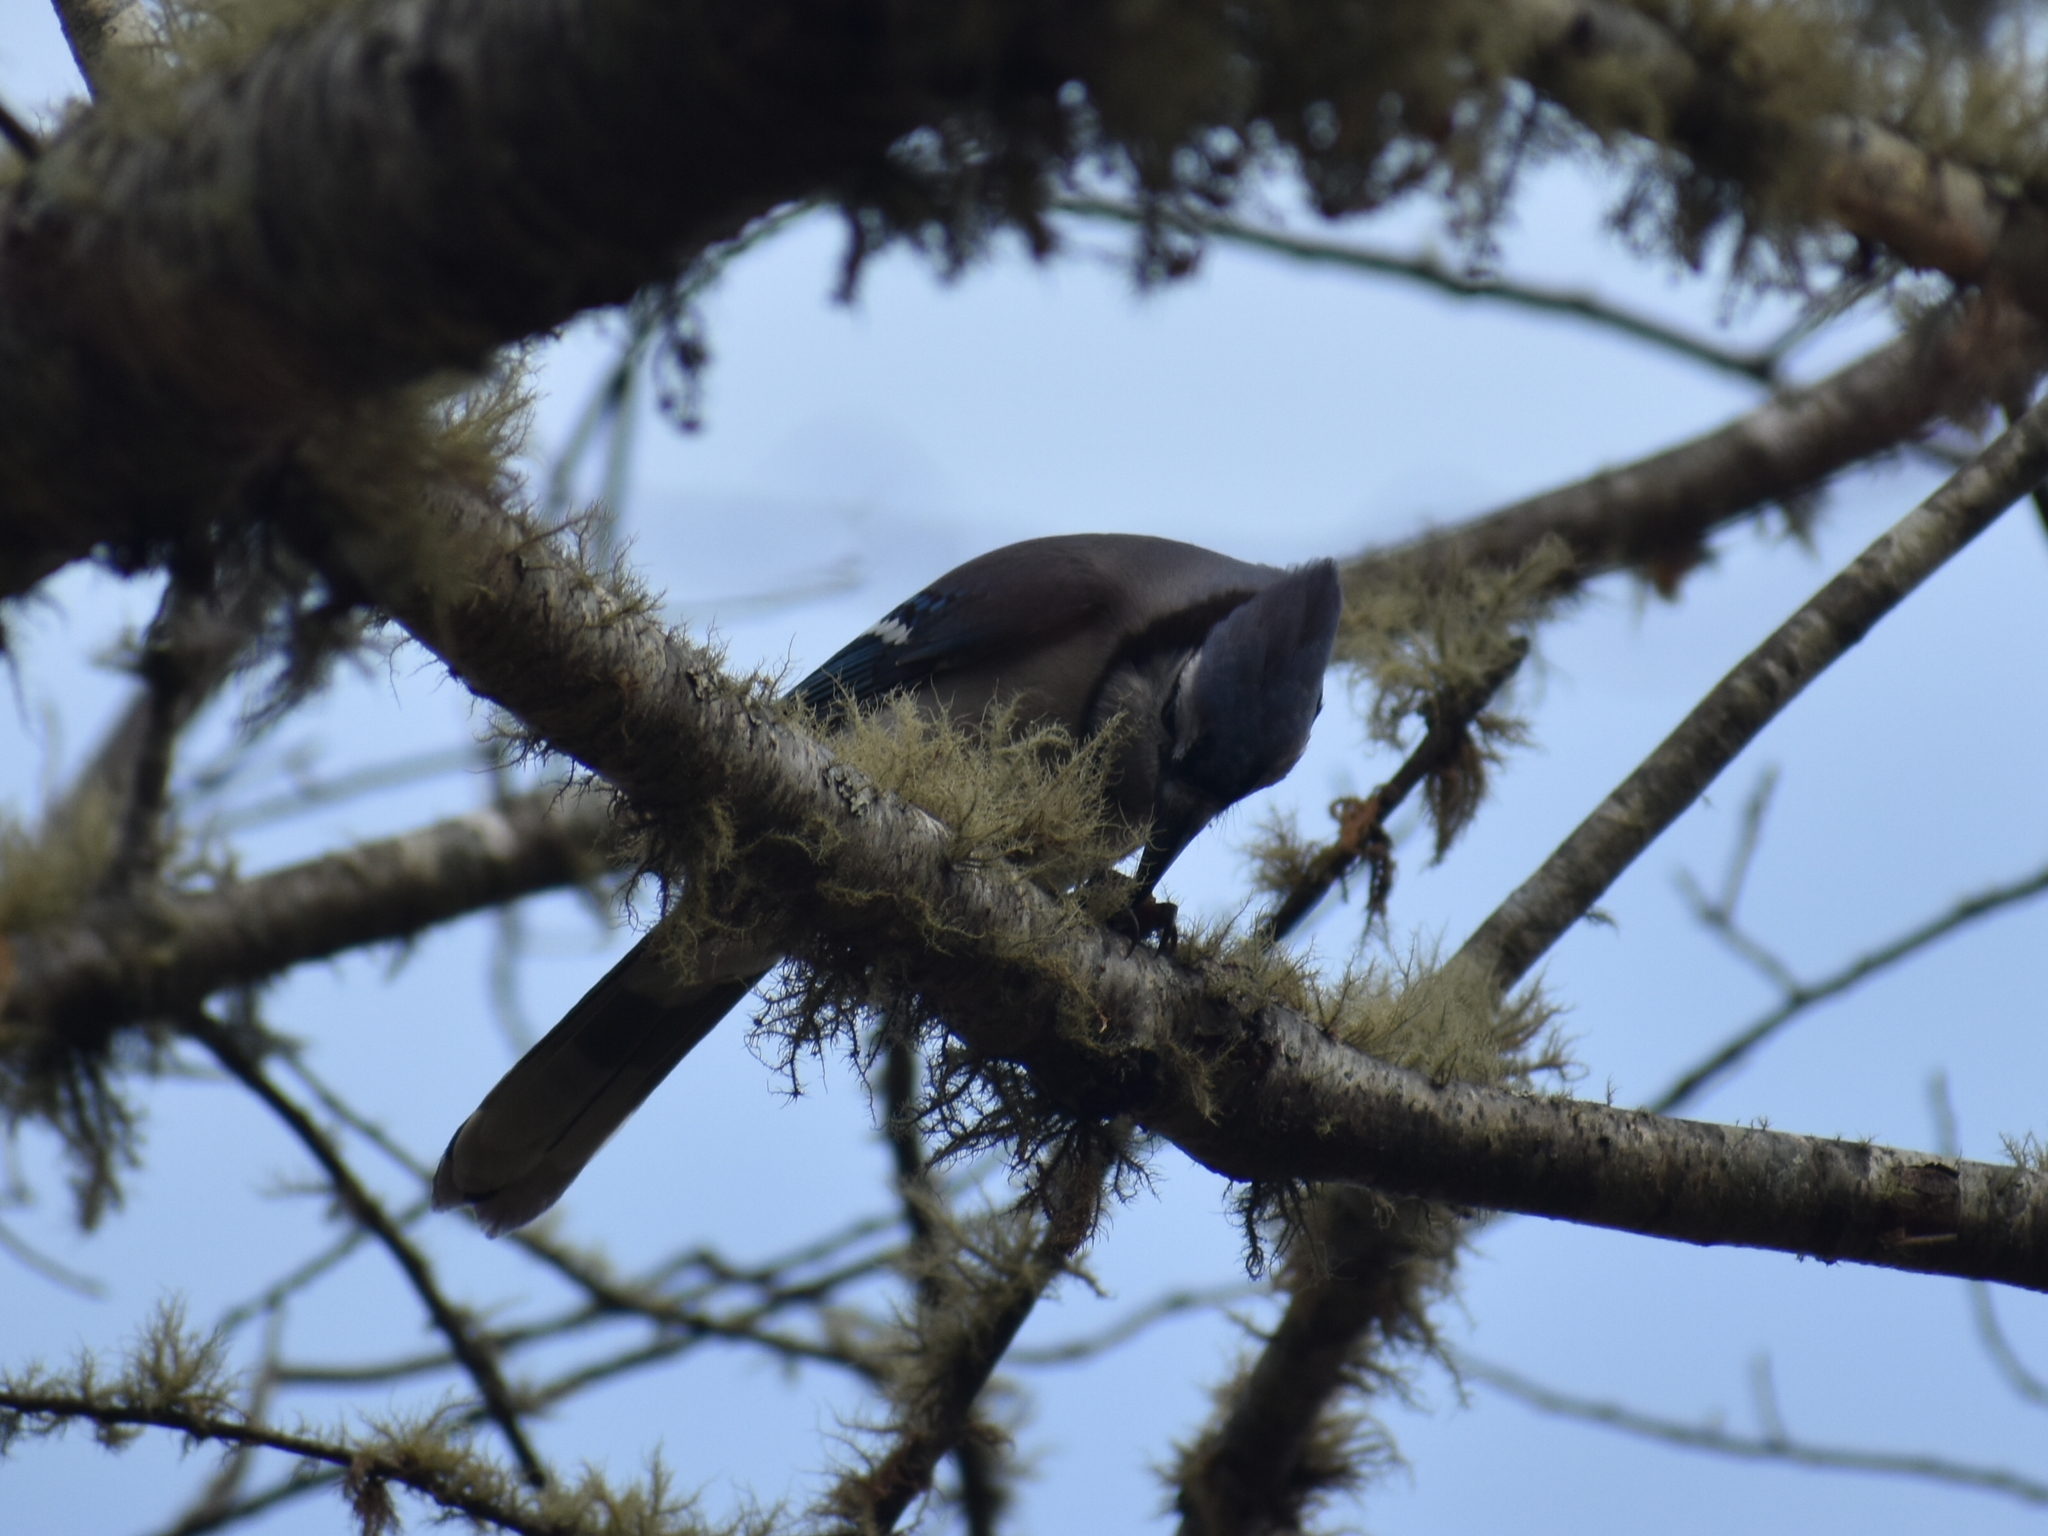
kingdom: Animalia
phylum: Chordata
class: Aves
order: Passeriformes
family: Corvidae
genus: Cyanocitta
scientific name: Cyanocitta cristata
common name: Blue jay
